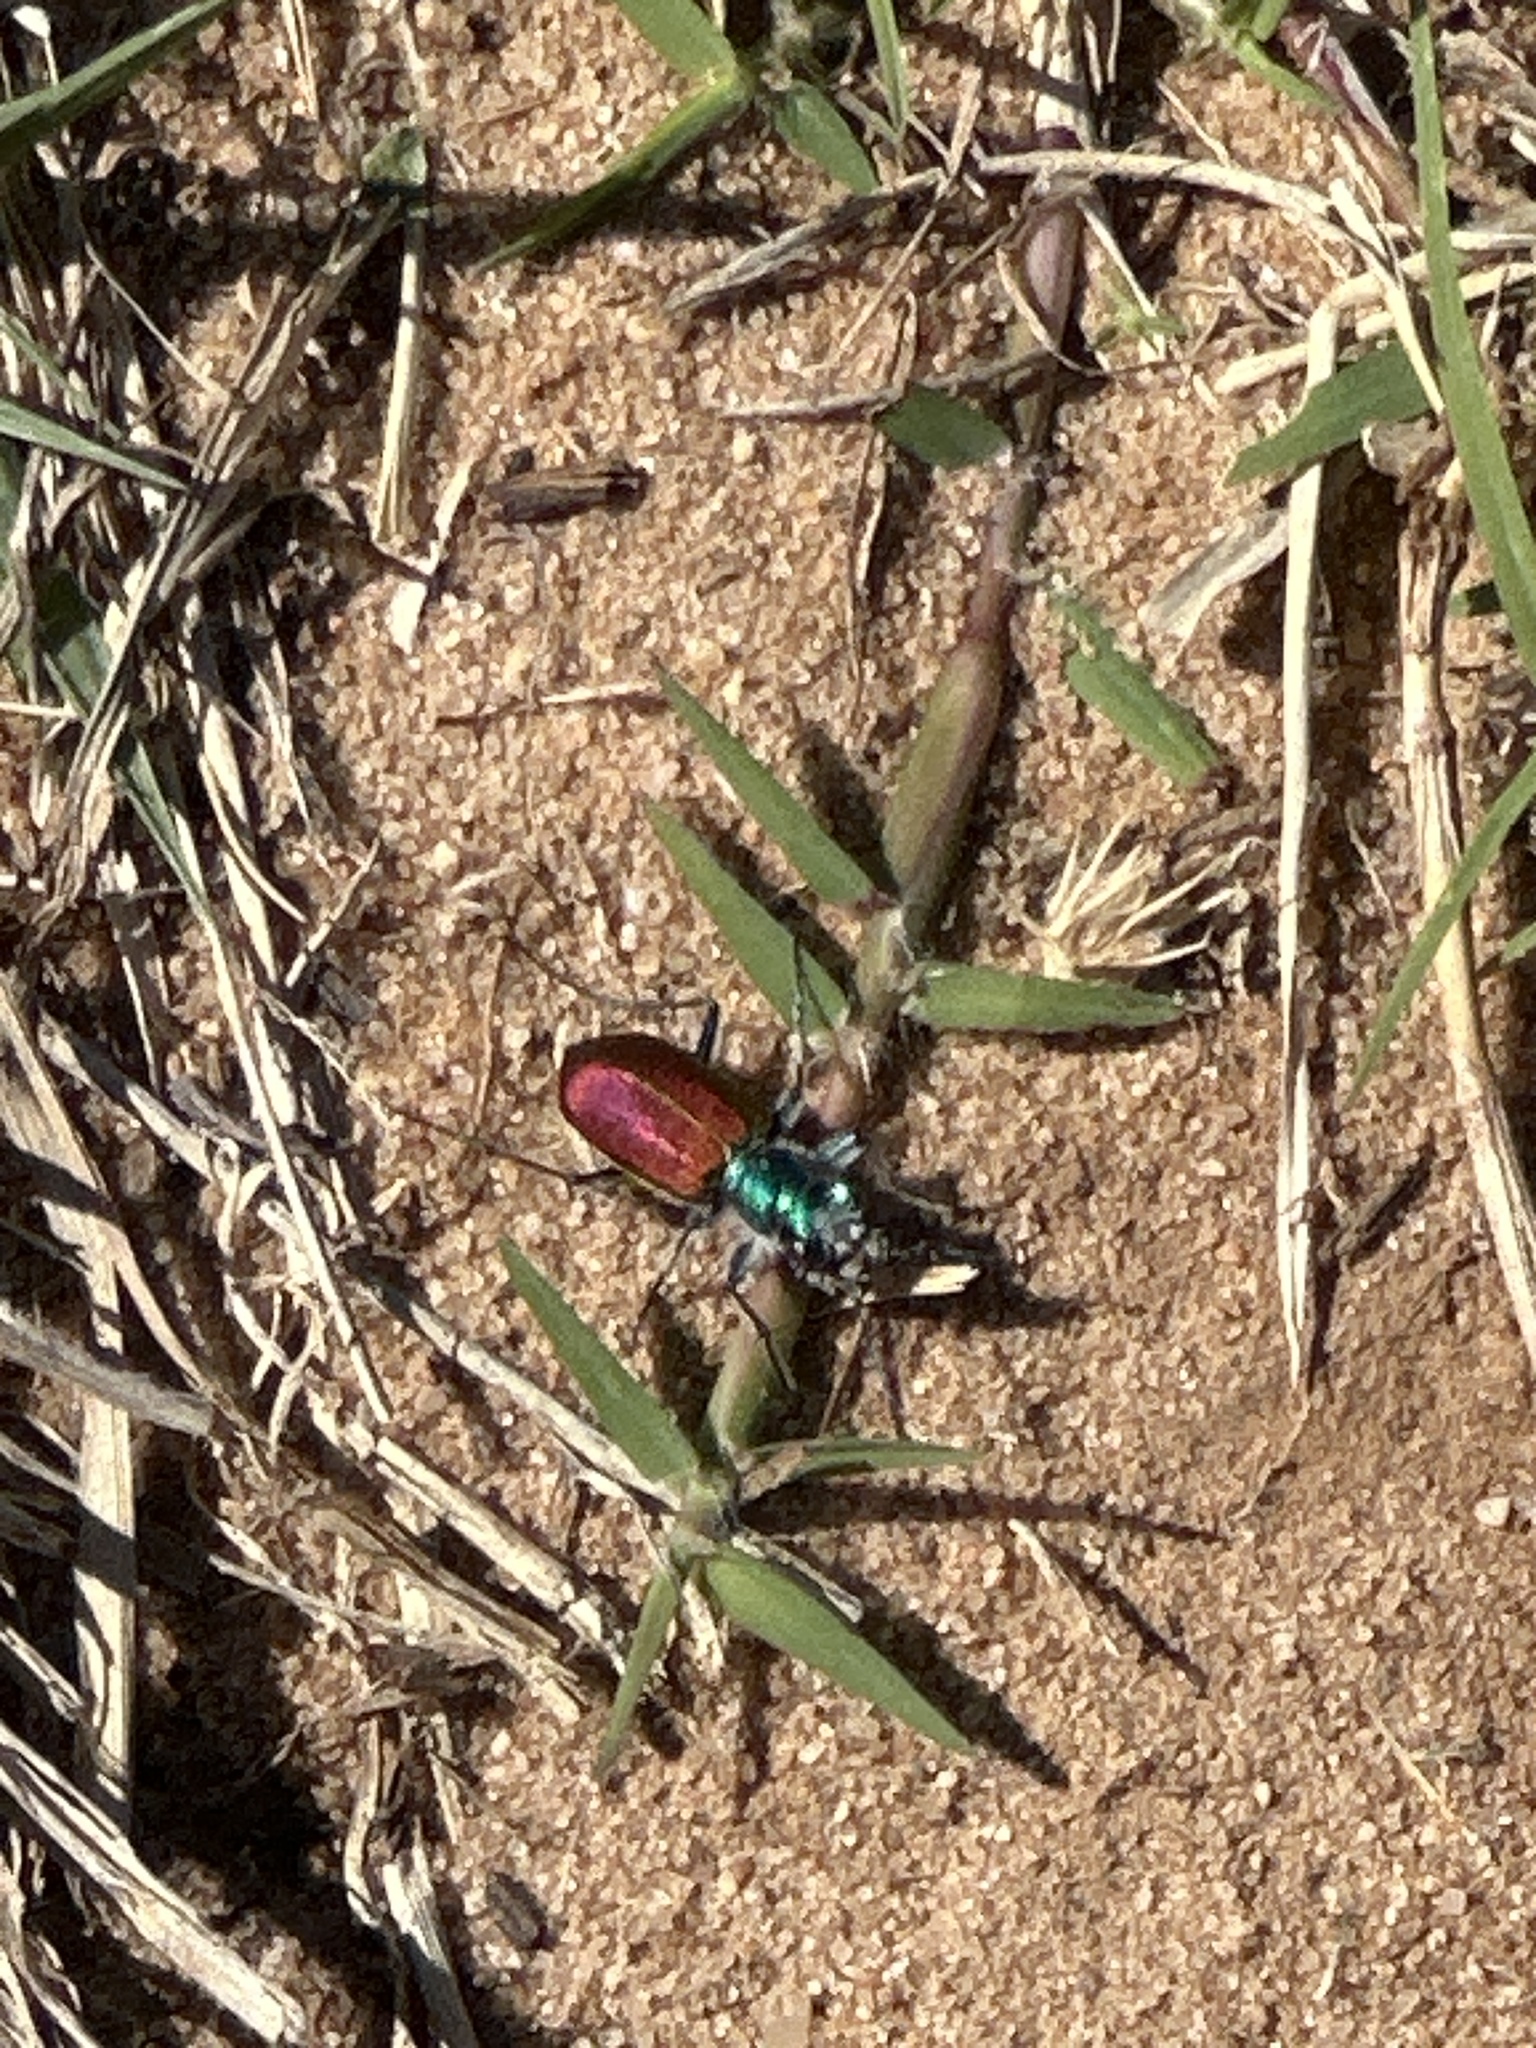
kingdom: Animalia
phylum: Arthropoda
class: Insecta
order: Coleoptera
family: Carabidae
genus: Cicindela
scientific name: Cicindela scutellaris
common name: Festive tiger beetle
